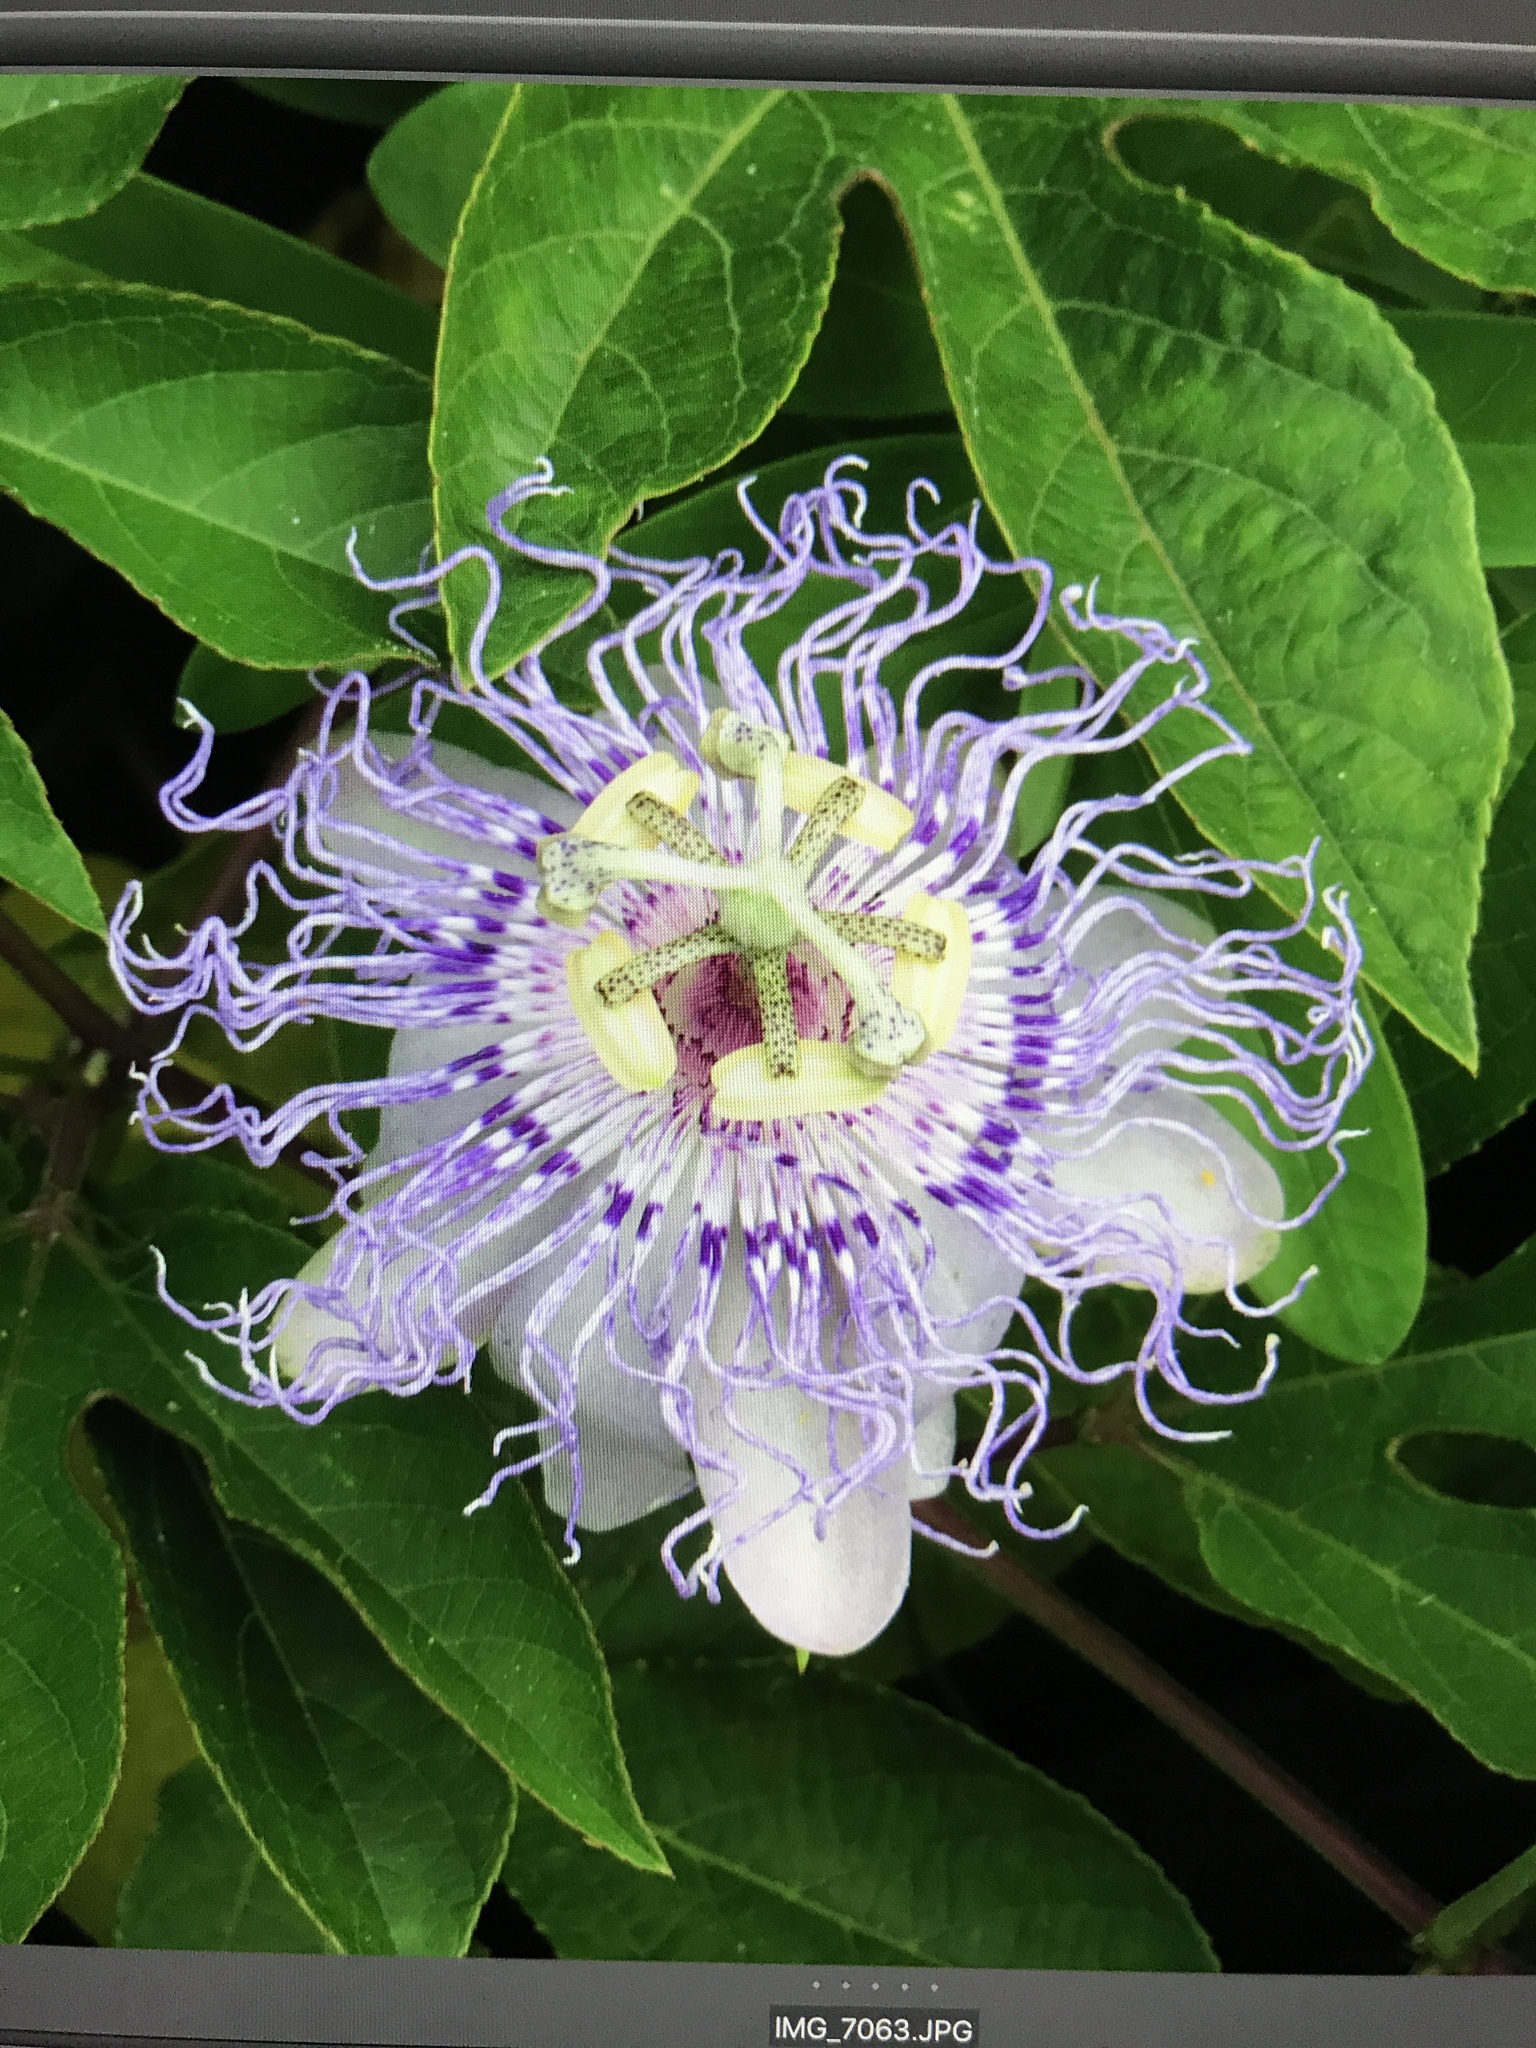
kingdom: Plantae
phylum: Tracheophyta
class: Magnoliopsida
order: Malpighiales
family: Passifloraceae
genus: Passiflora
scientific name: Passiflora incarnata
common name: Apricot-vine
